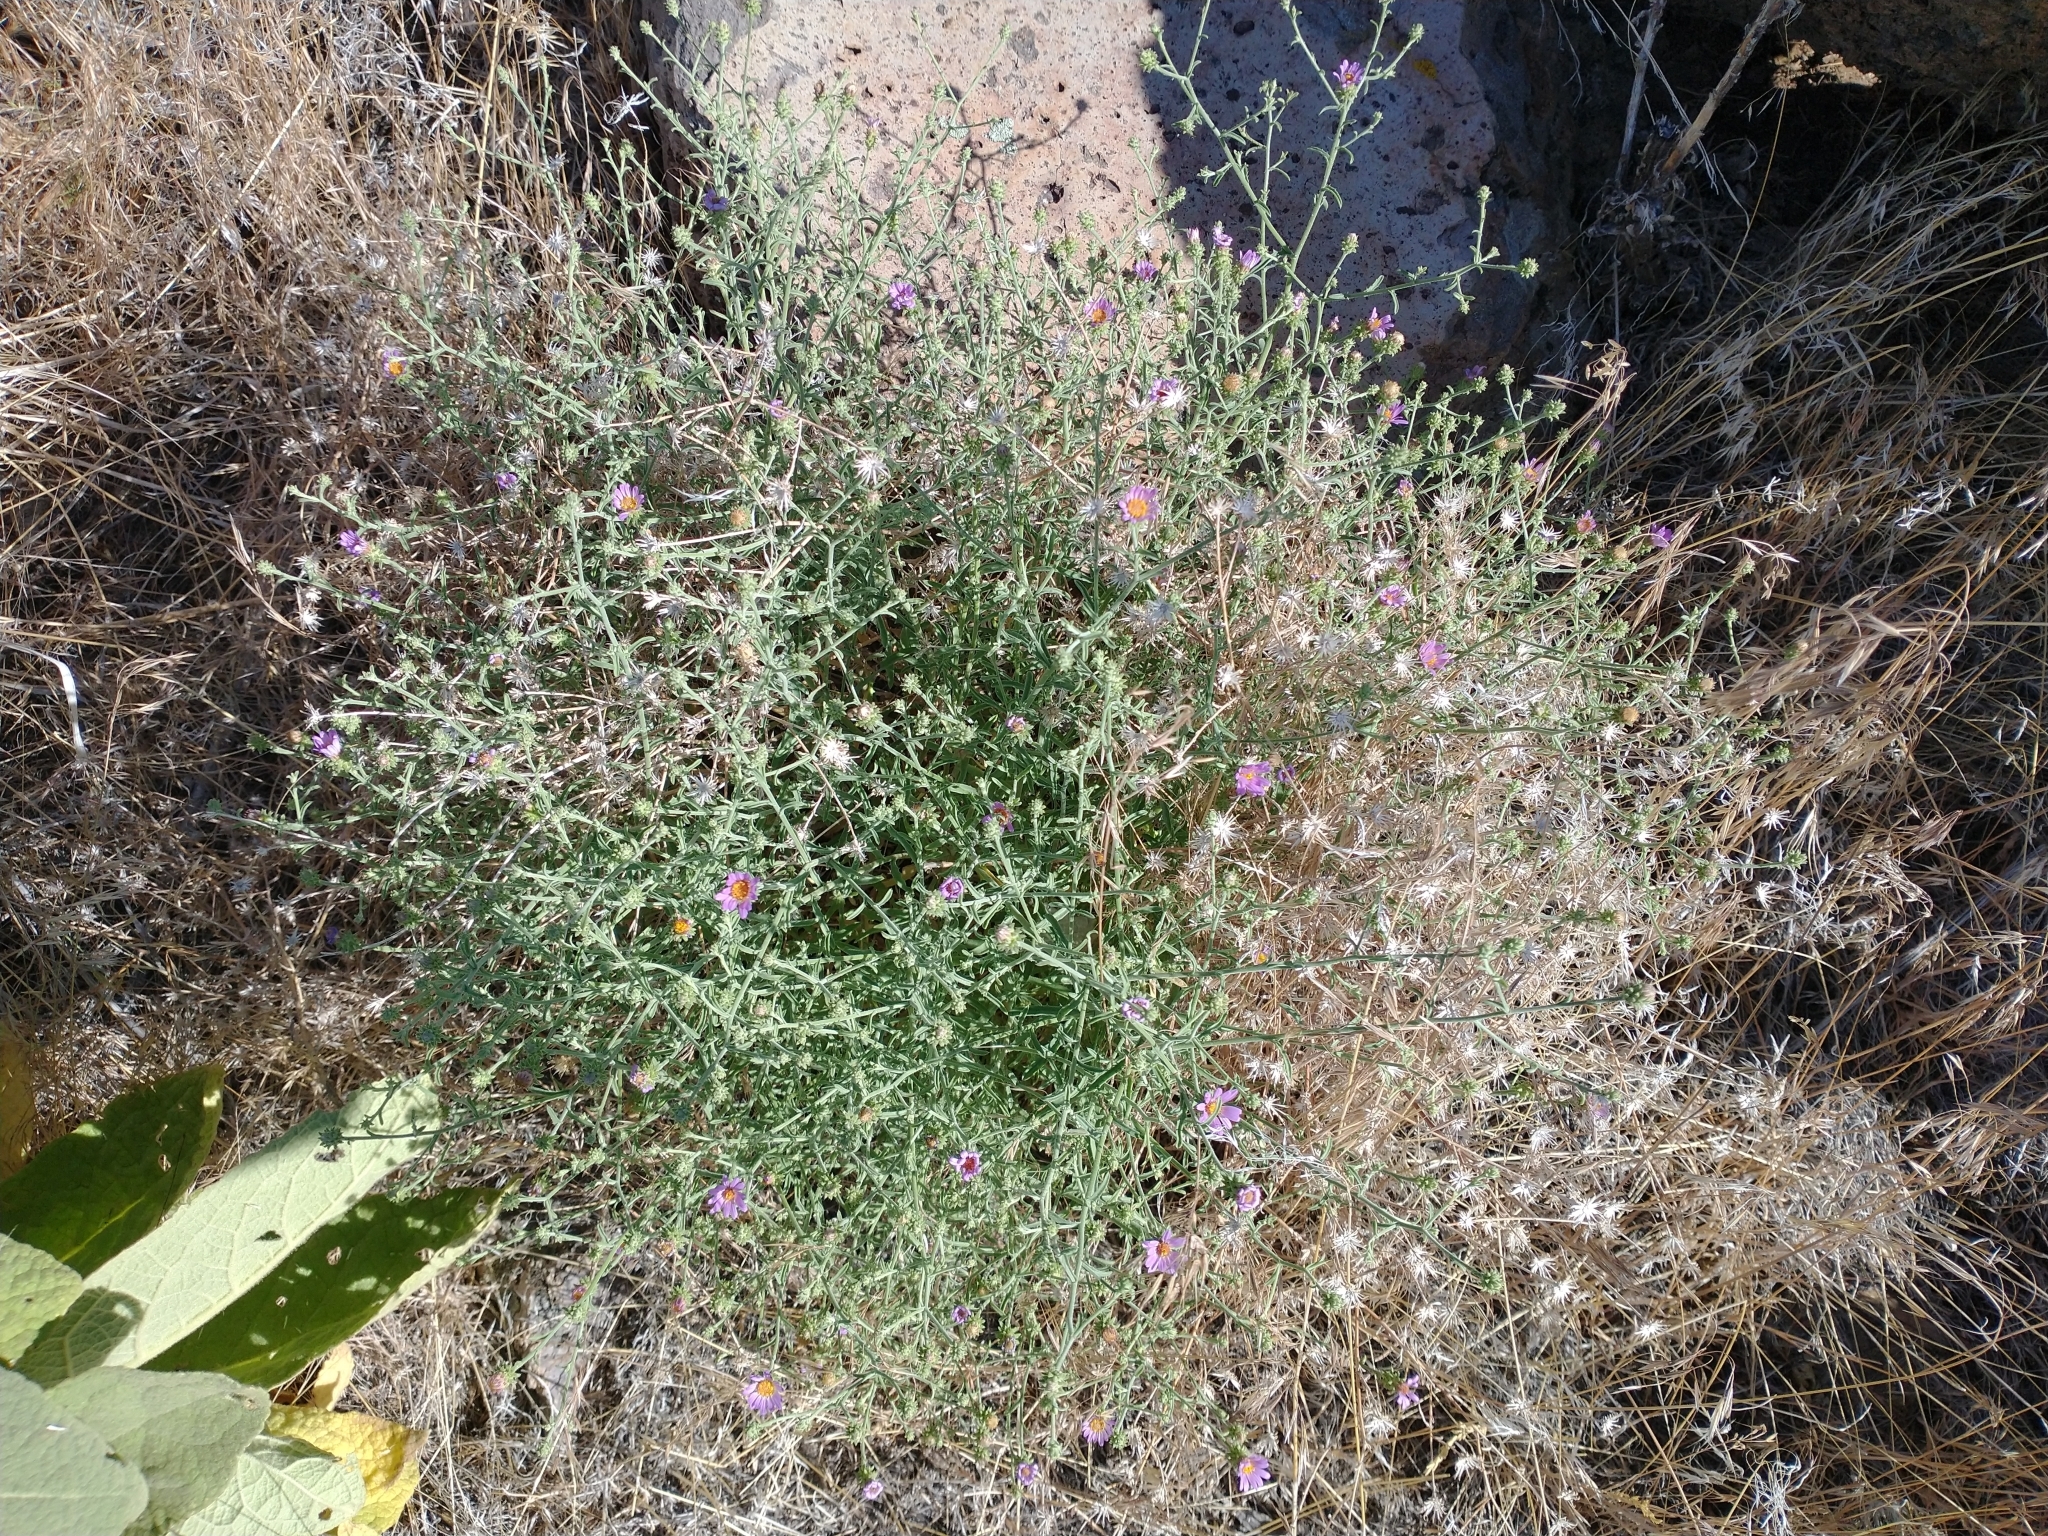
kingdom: Plantae
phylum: Tracheophyta
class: Magnoliopsida
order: Asterales
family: Asteraceae
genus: Dieteria
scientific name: Dieteria canescens
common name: Hoary-aster
